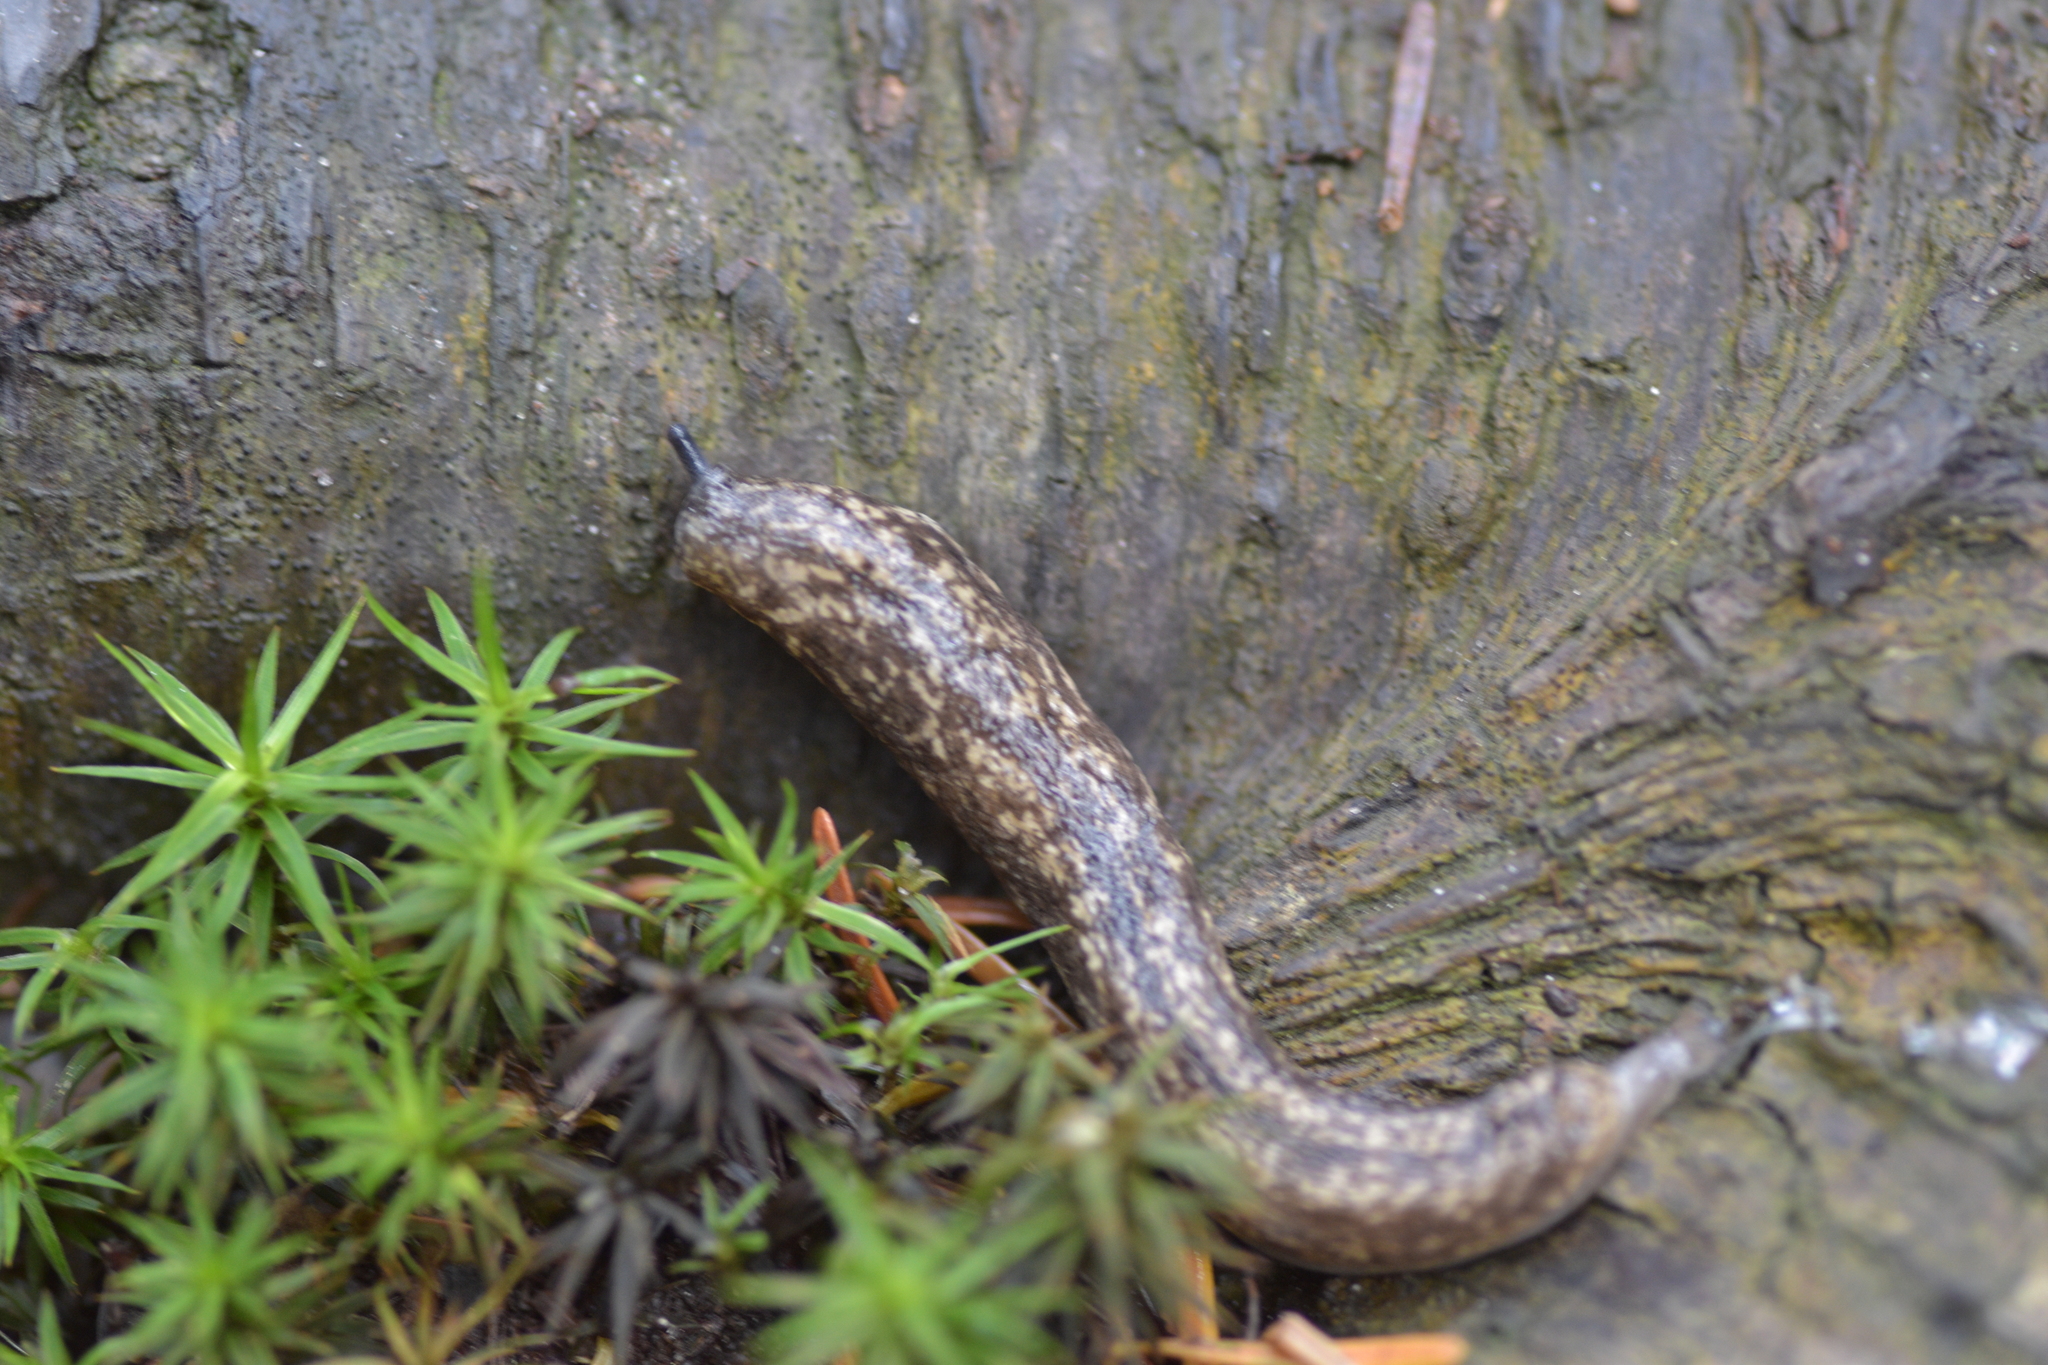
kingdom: Animalia
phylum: Mollusca
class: Gastropoda
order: Stylommatophora
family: Philomycidae
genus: Philomycus
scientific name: Philomycus flexuolaris
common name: Winding mantleslug
